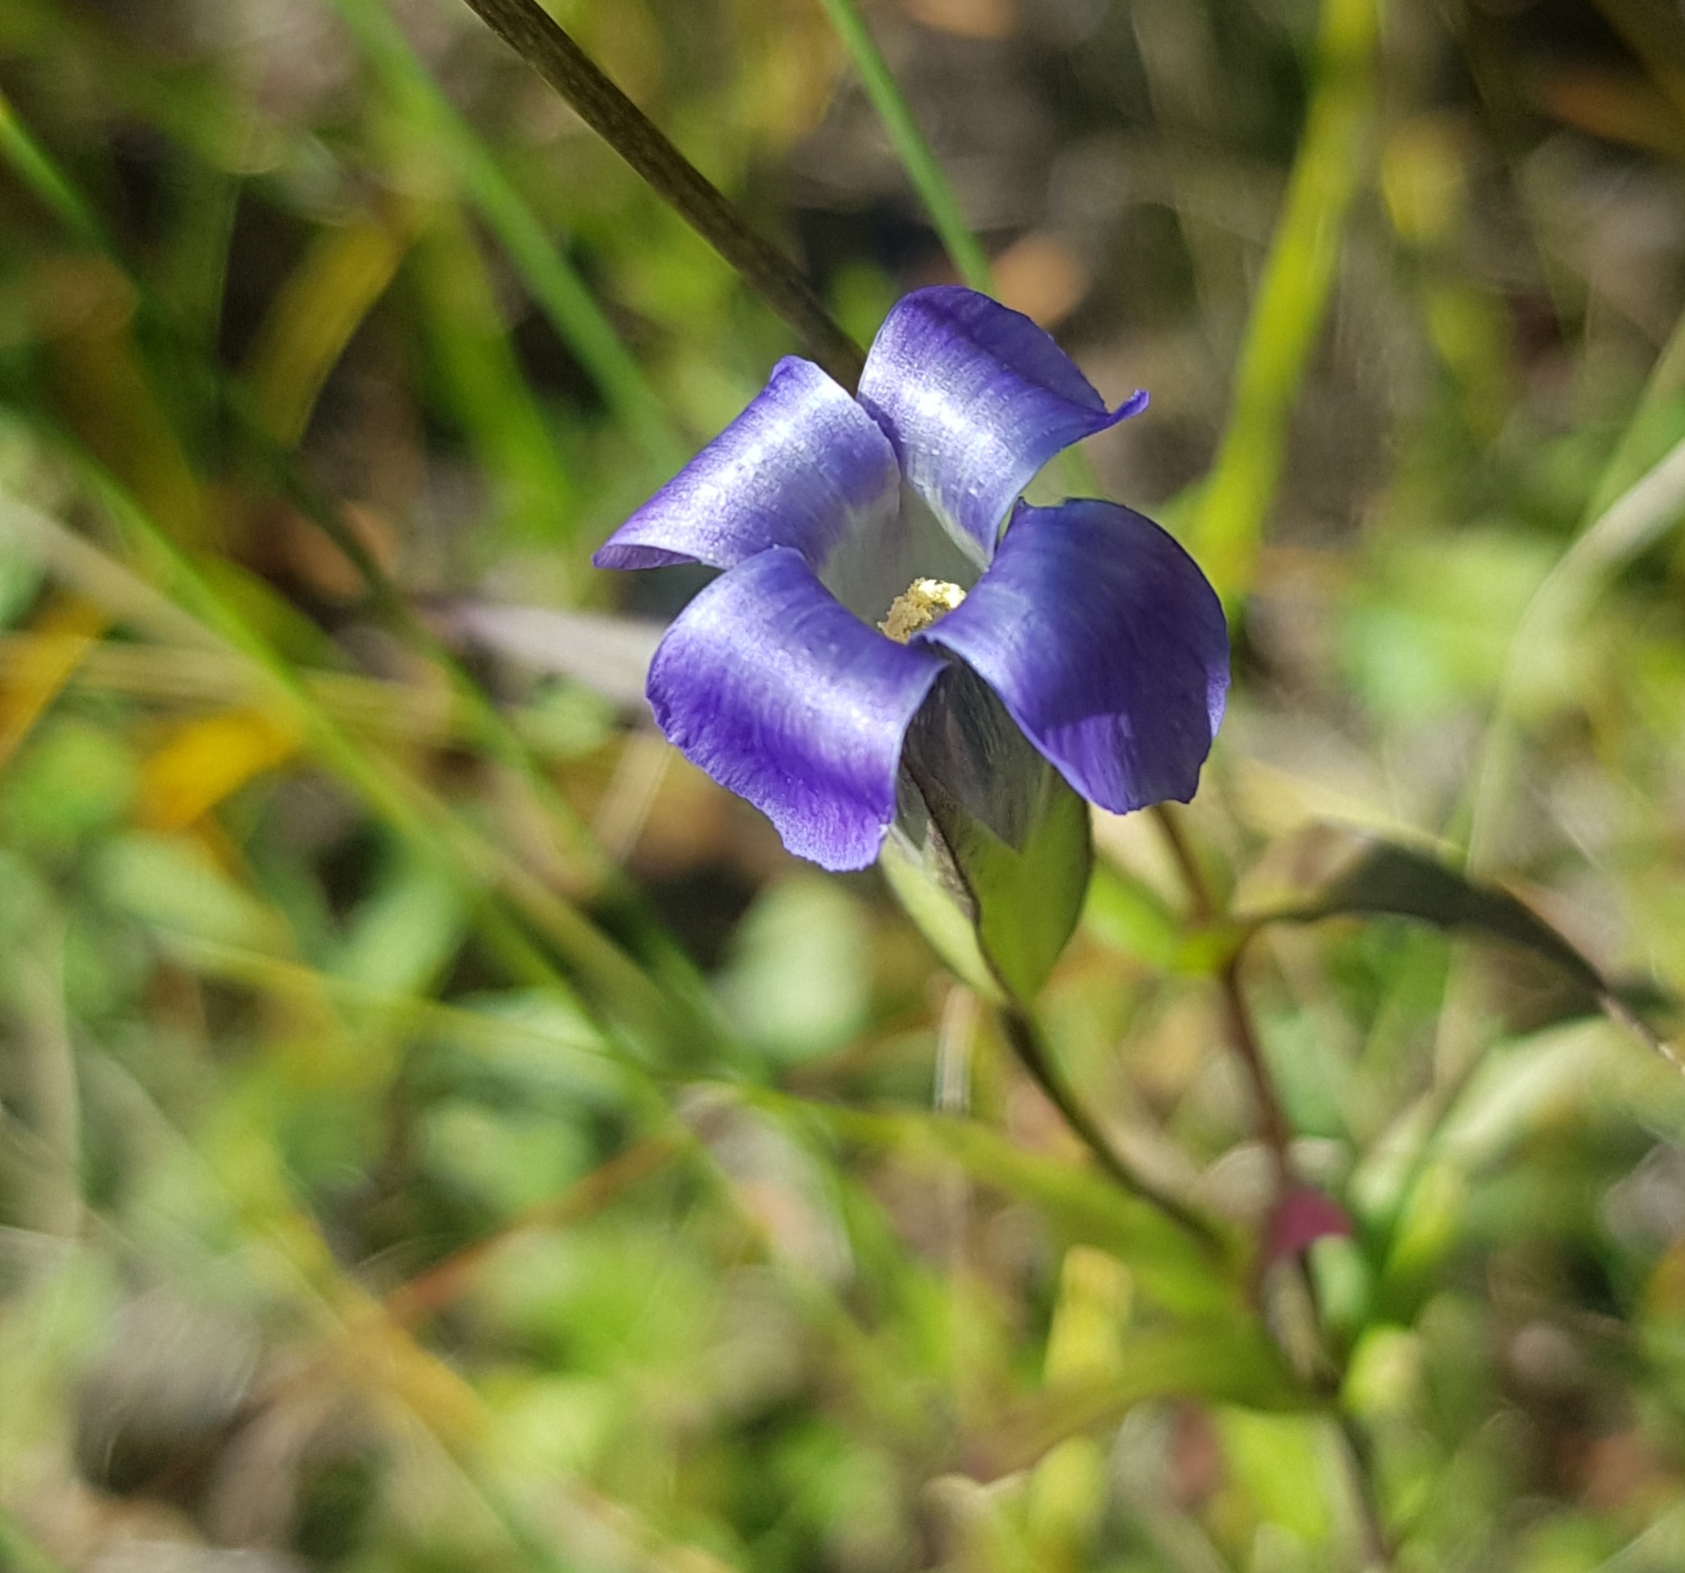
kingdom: Plantae
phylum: Tracheophyta
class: Magnoliopsida
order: Gentianales
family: Gentianaceae
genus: Gentianopsis
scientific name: Gentianopsis barbata
